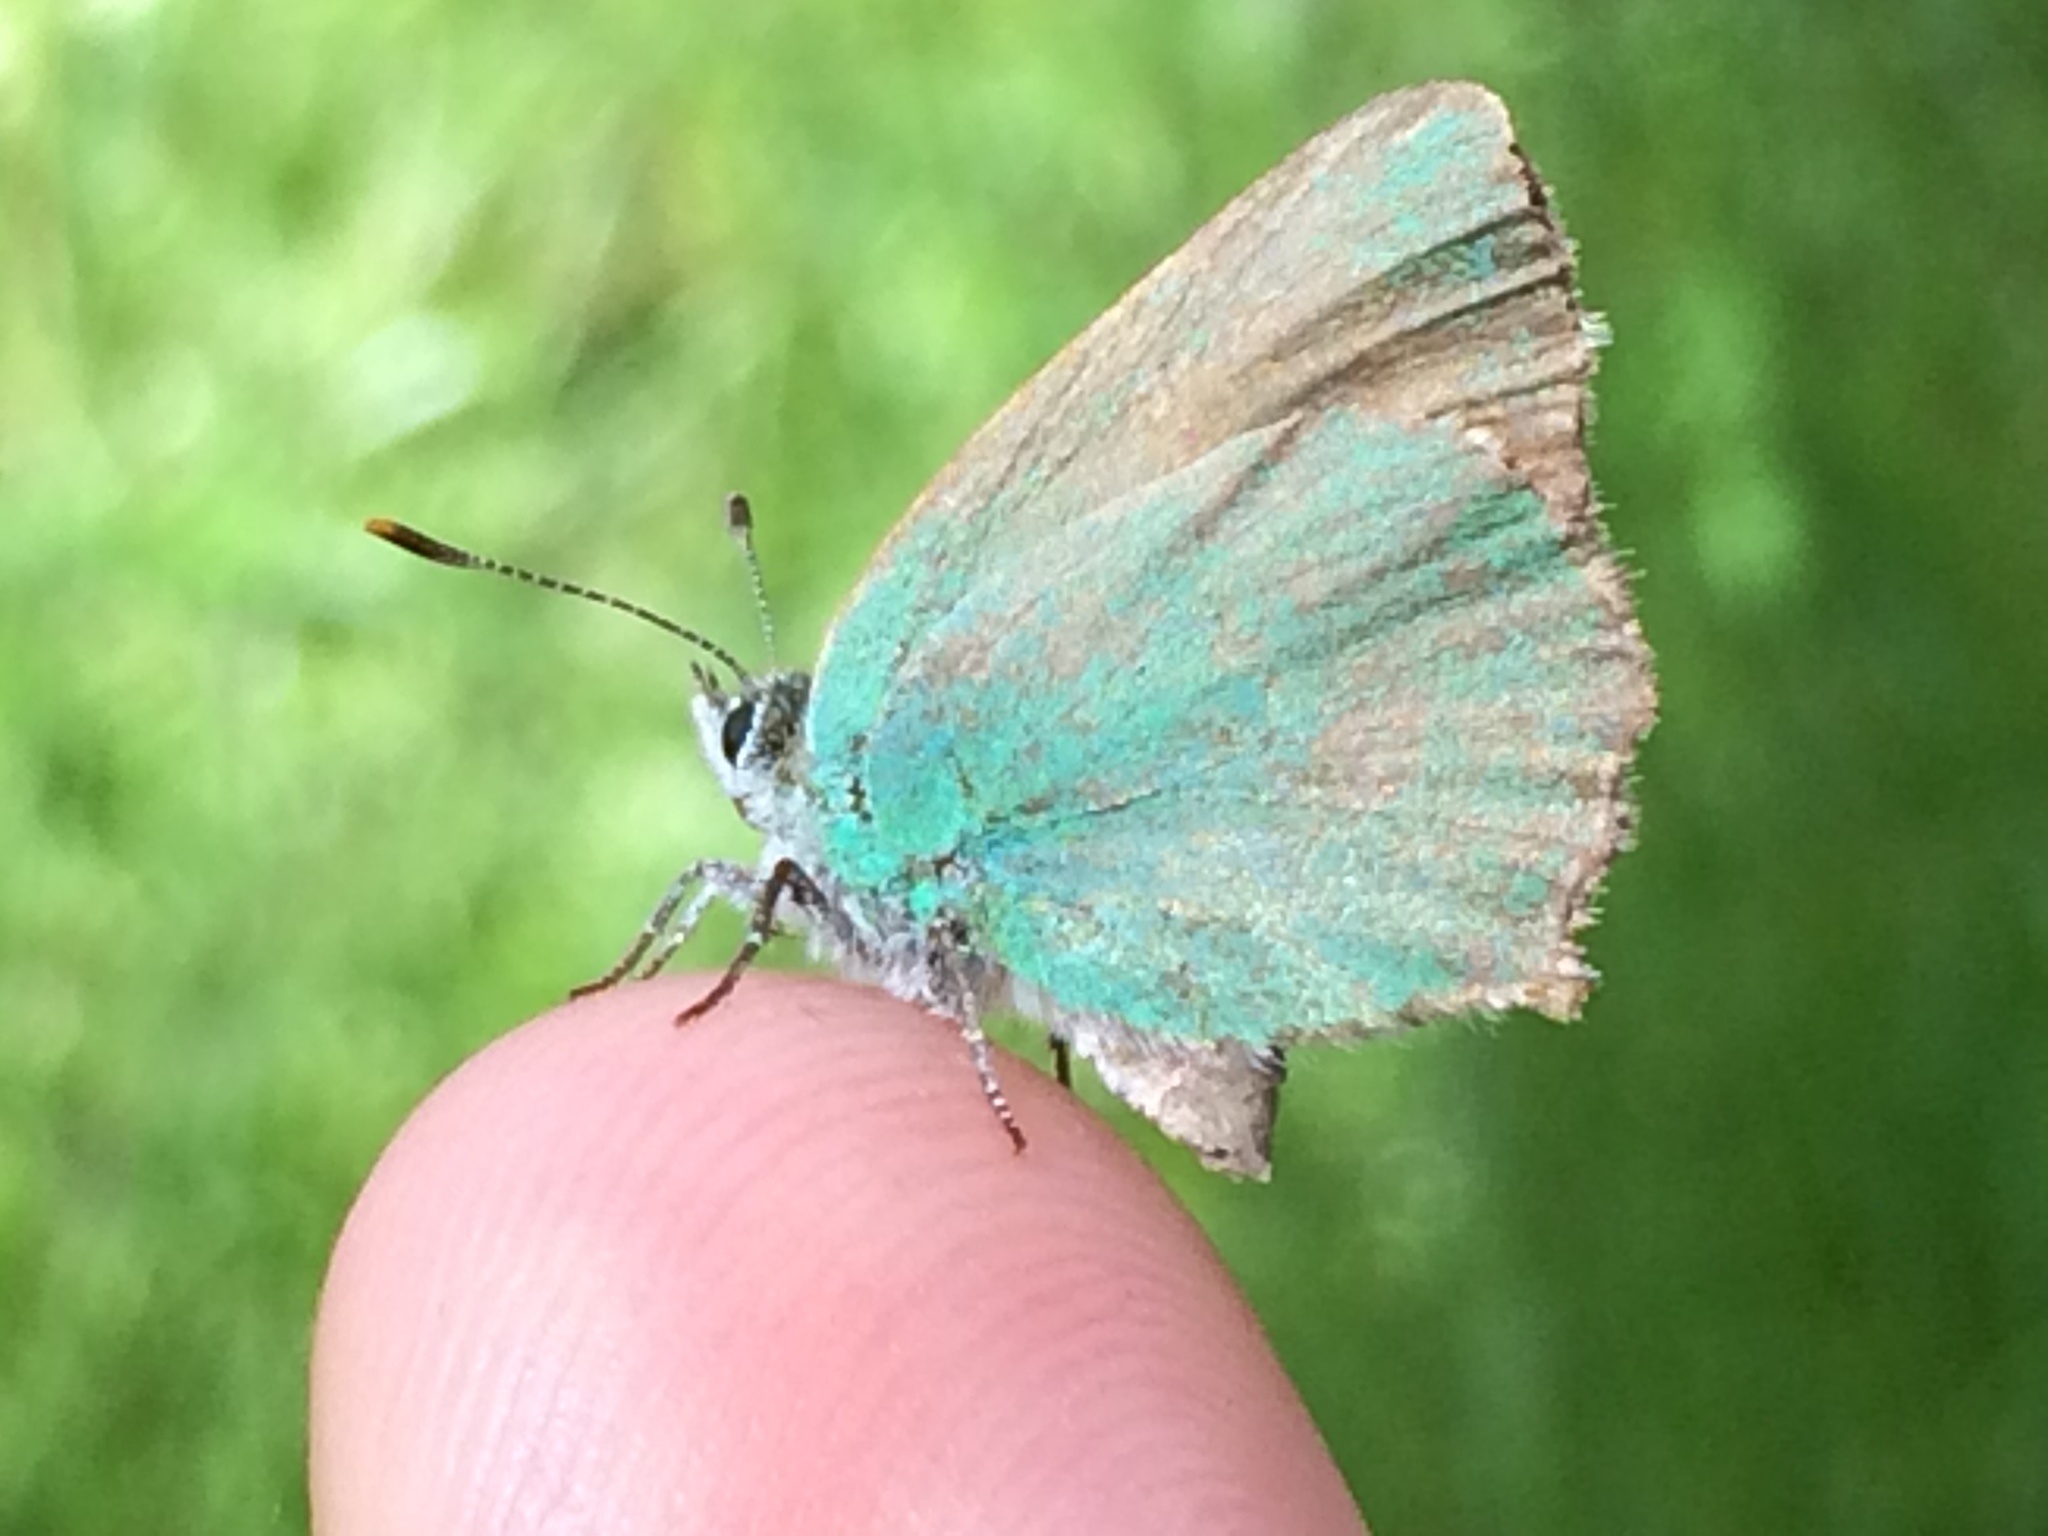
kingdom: Animalia
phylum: Arthropoda
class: Insecta
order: Lepidoptera
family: Lycaenidae
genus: Callophrys
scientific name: Callophrys dumetorum
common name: Bramble hairstreak
